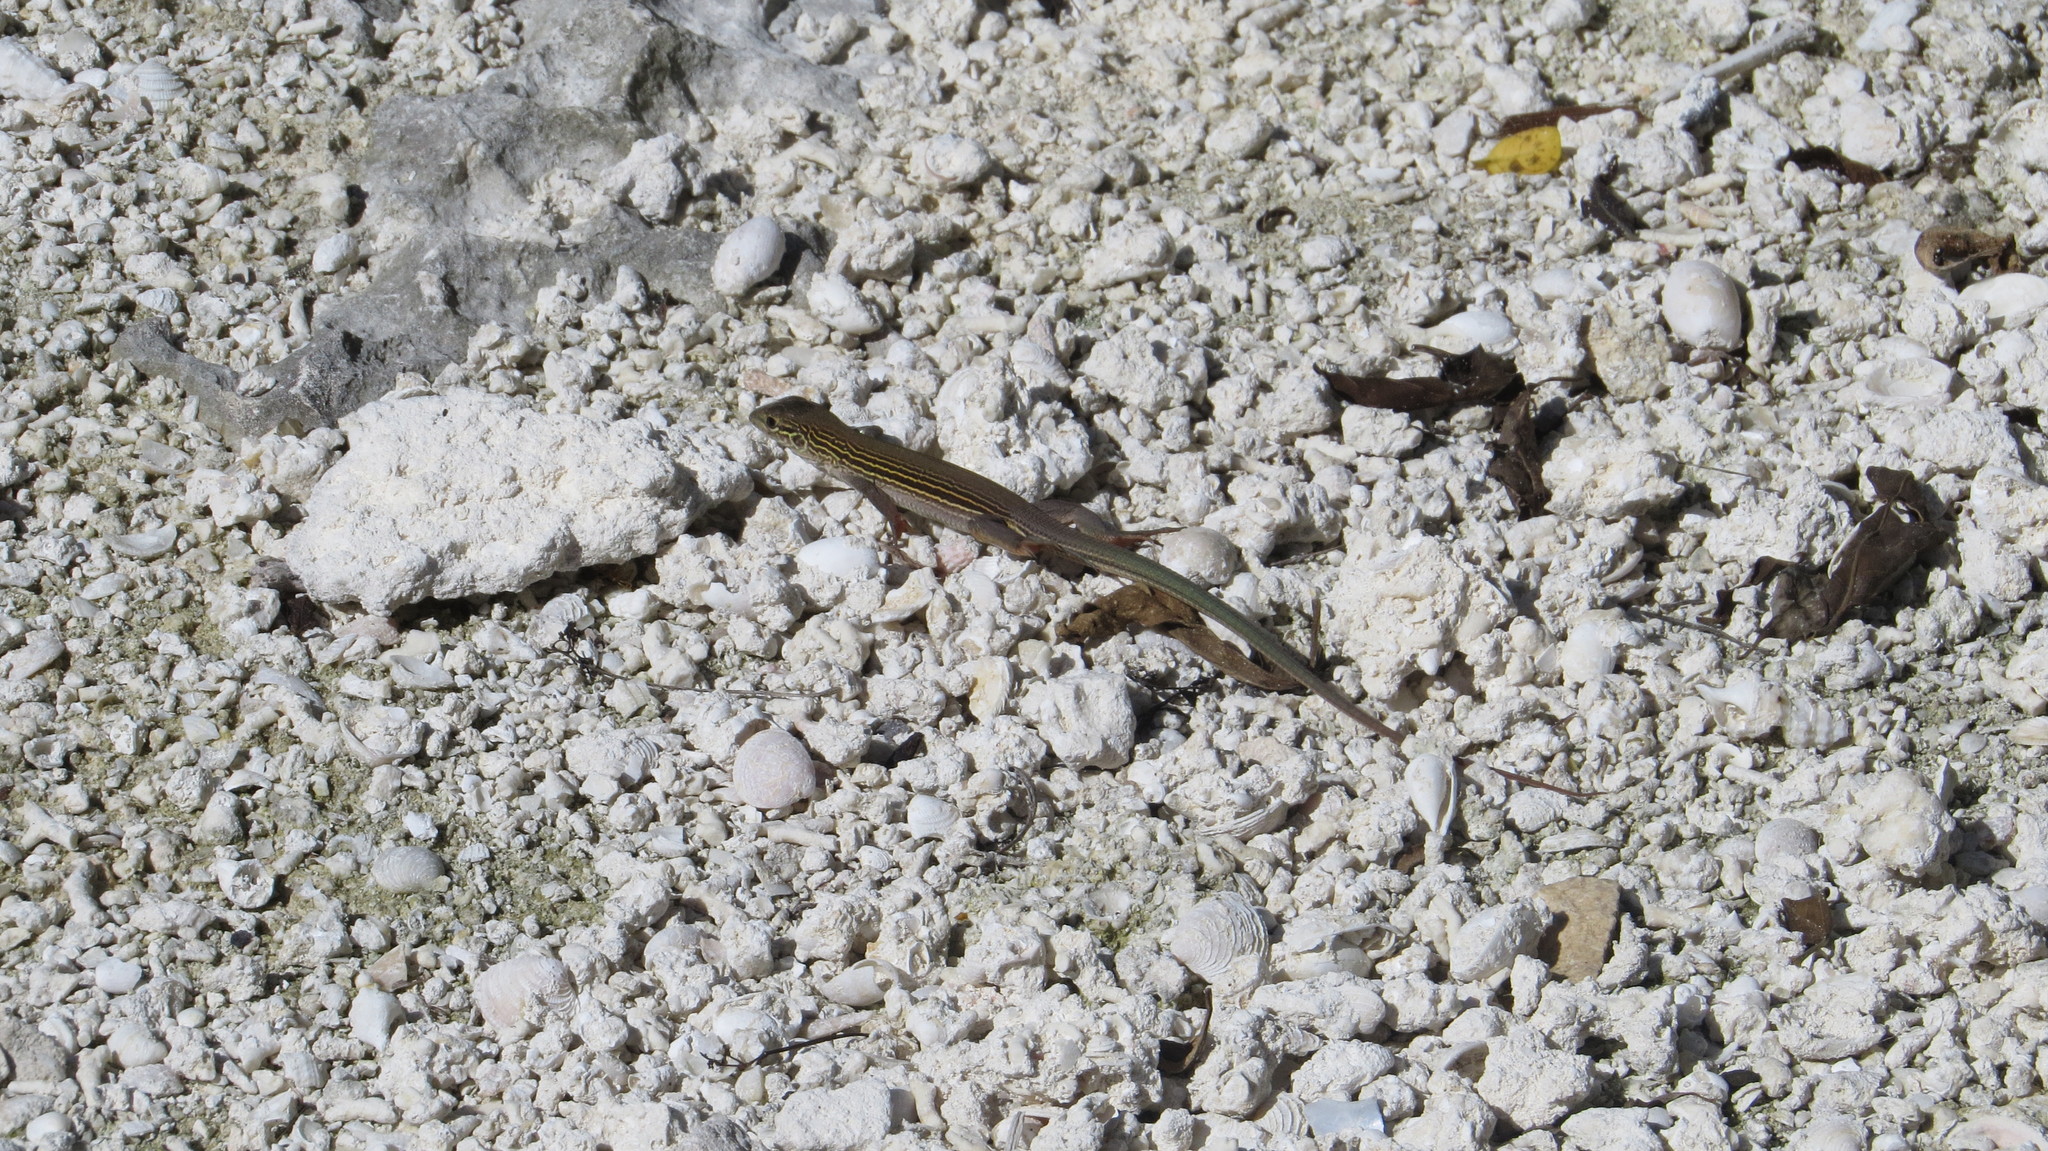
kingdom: Animalia
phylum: Chordata
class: Squamata
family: Teiidae
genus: Aspidoscelis
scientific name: Aspidoscelis cozumela
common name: Cozumel racerunner
